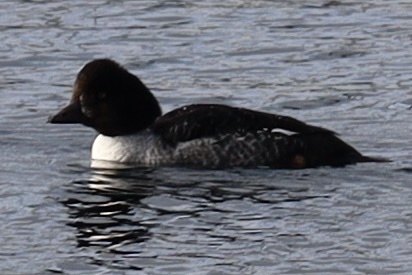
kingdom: Animalia
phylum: Chordata
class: Aves
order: Anseriformes
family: Anatidae
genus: Bucephala
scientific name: Bucephala islandica
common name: Barrow's goldeneye
